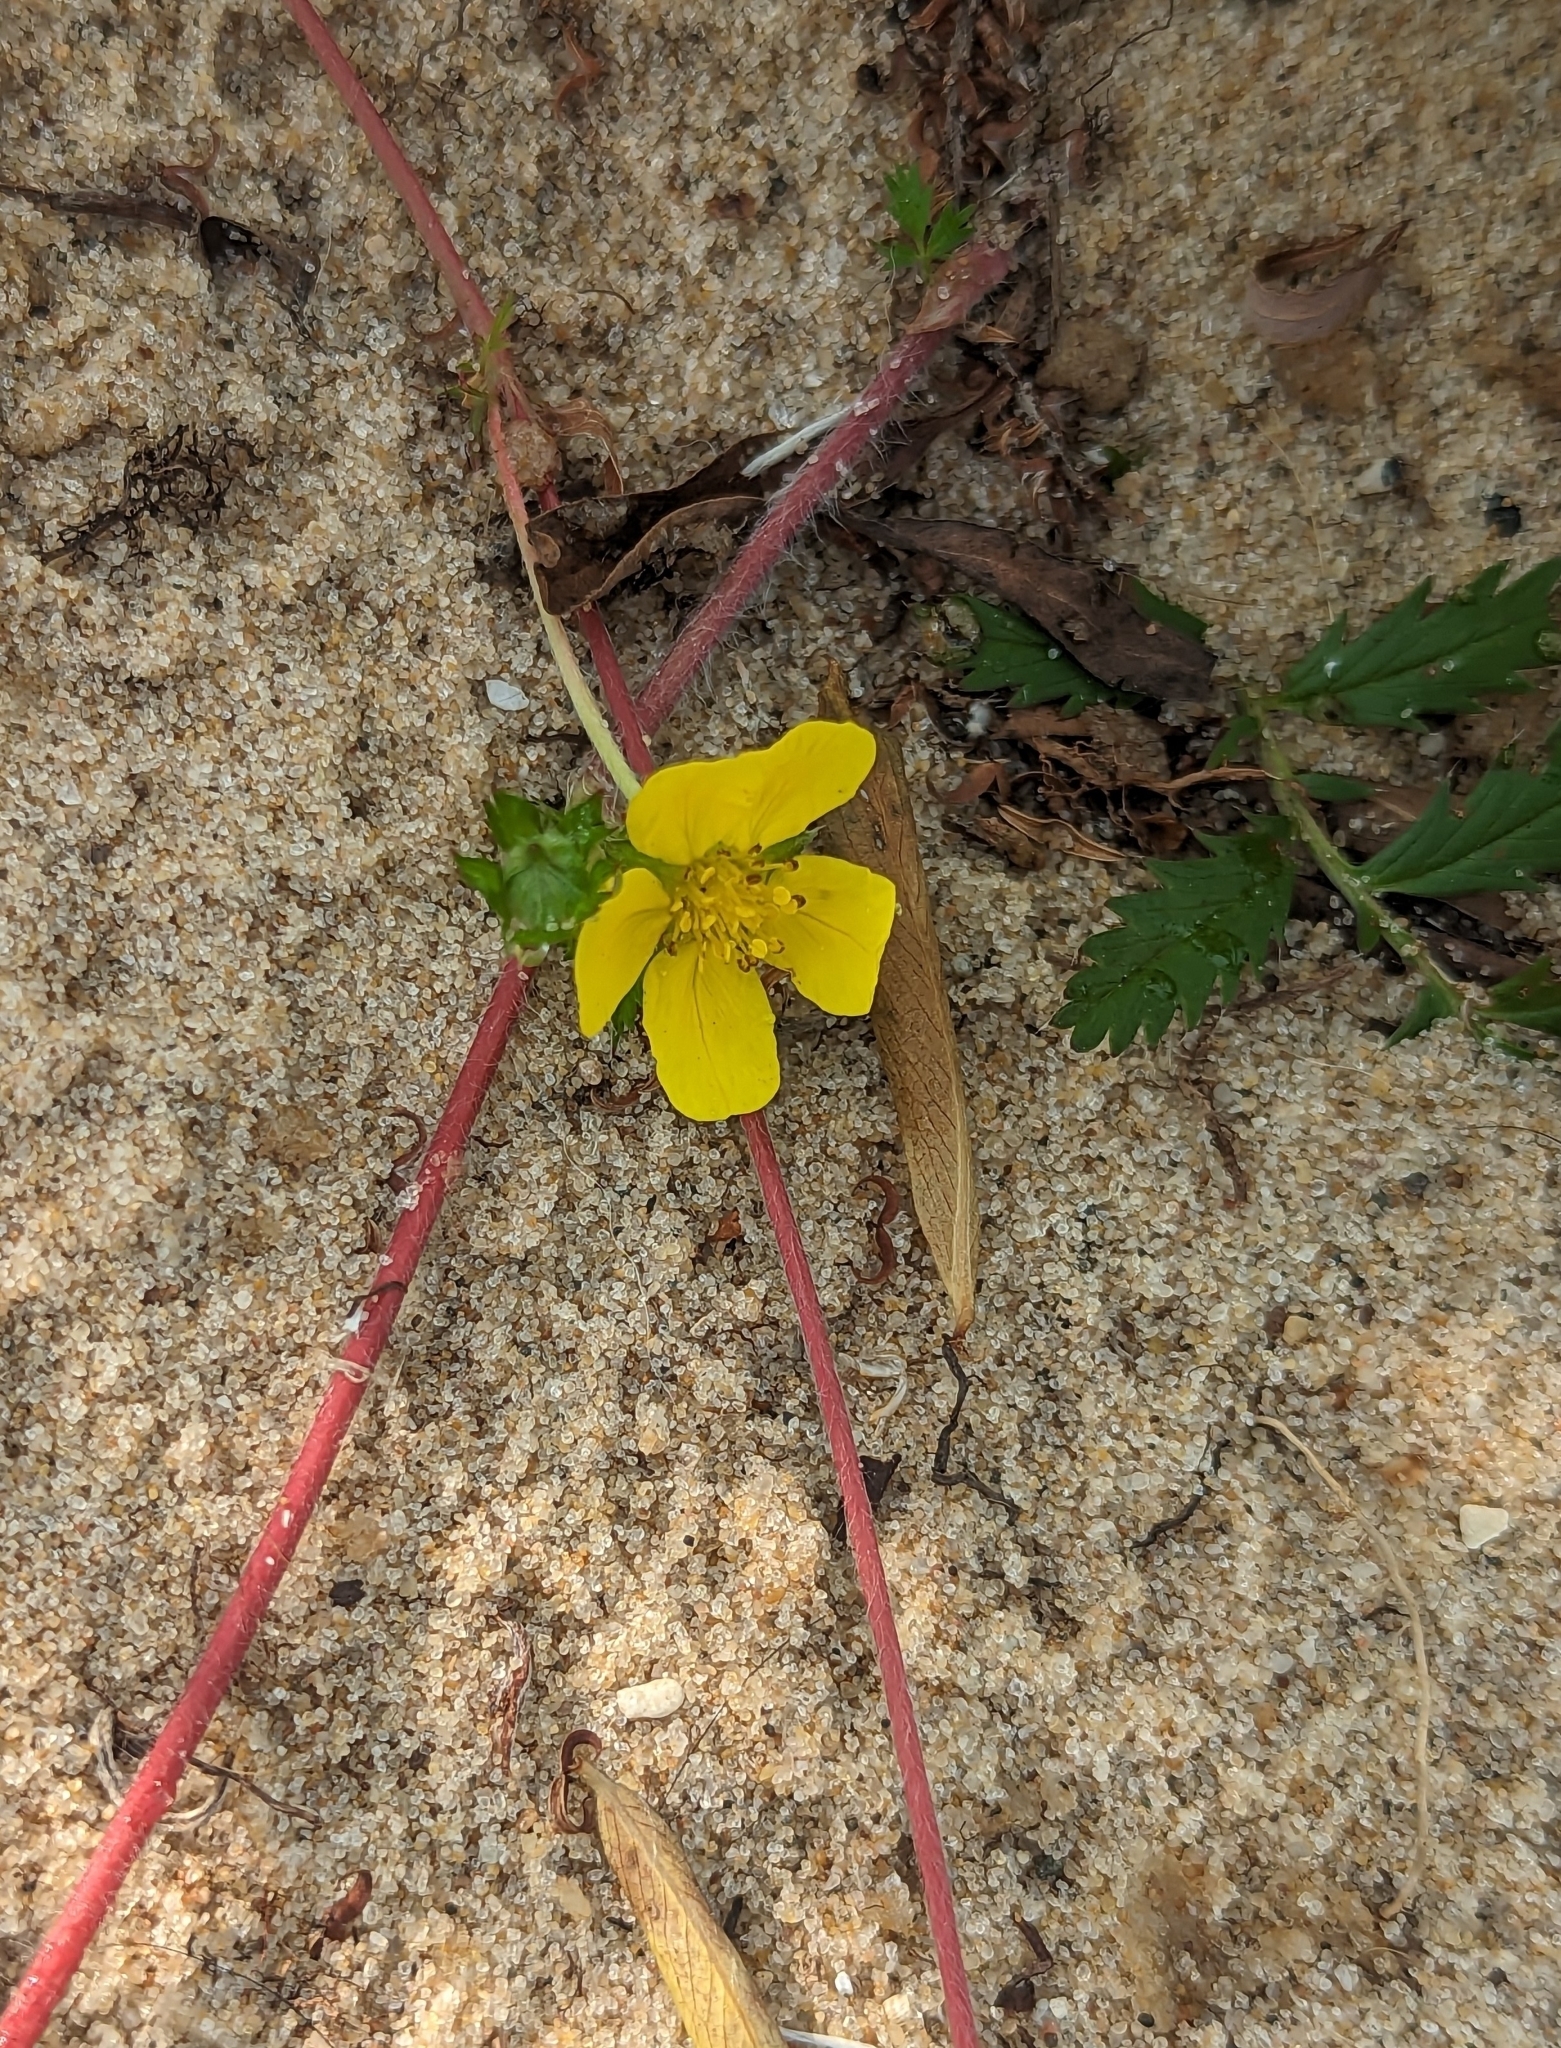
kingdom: Plantae
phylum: Tracheophyta
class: Magnoliopsida
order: Rosales
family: Rosaceae
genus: Argentina
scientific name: Argentina anserina
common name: Common silverweed
